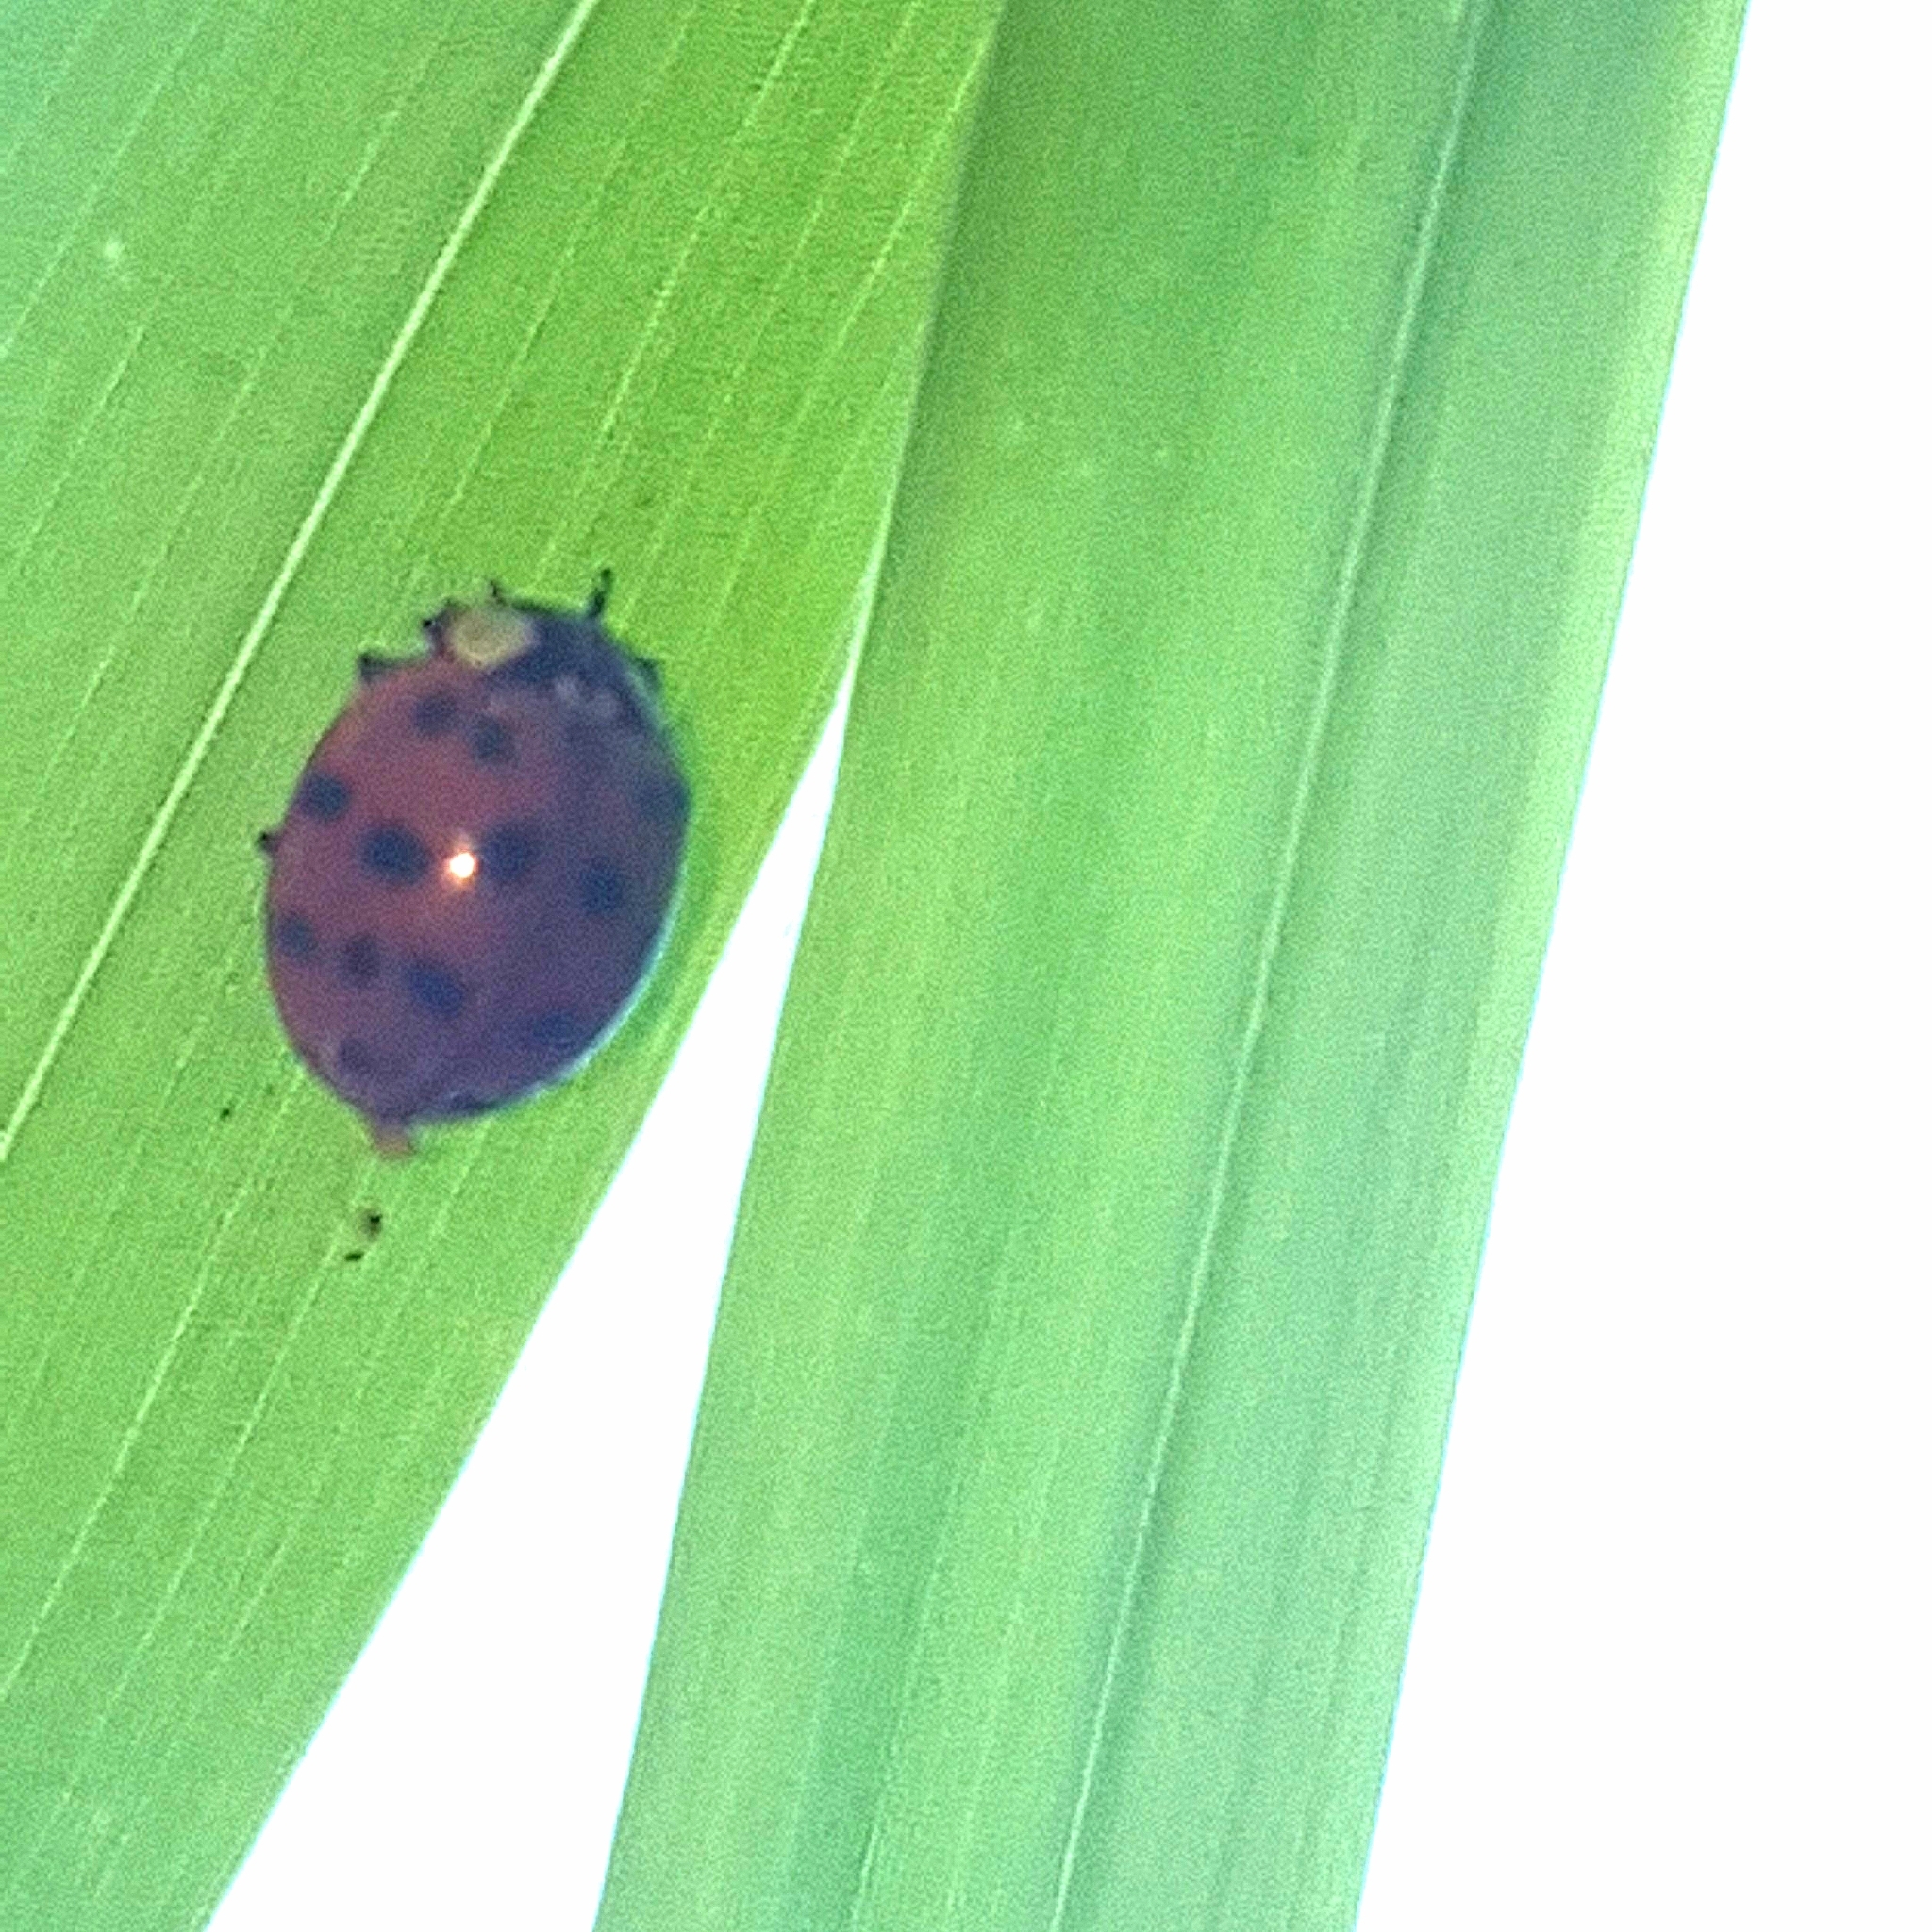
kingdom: Animalia
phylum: Arthropoda
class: Insecta
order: Coleoptera
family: Coccinellidae
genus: Harmonia
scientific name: Harmonia axyridis
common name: Harlequin ladybird
